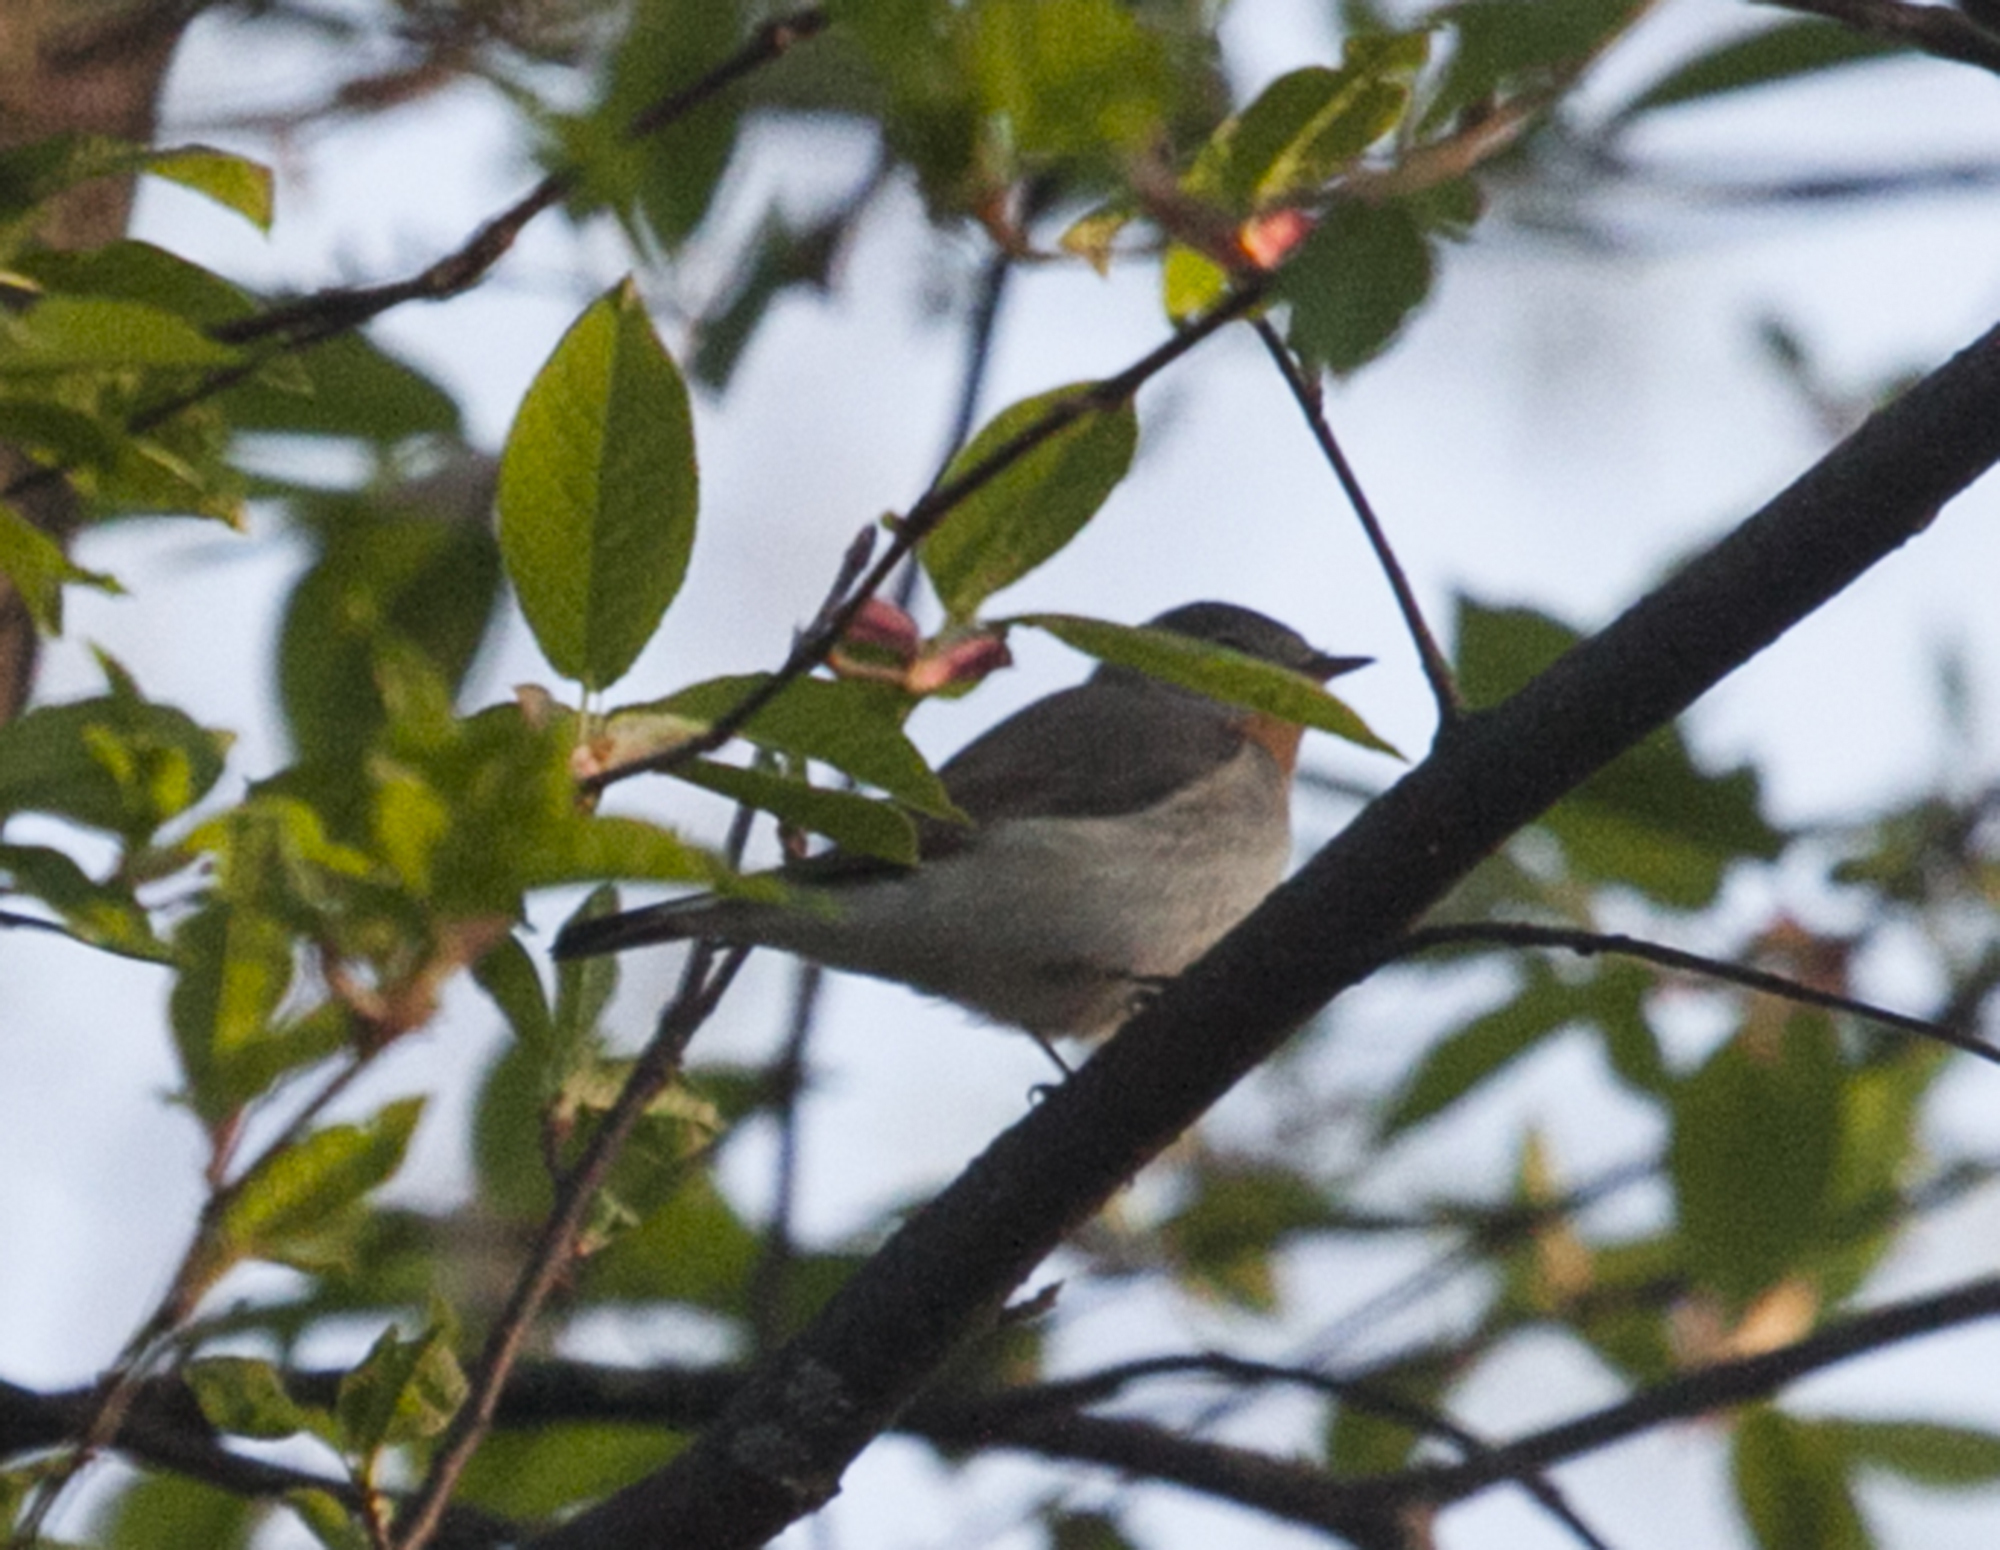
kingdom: Animalia
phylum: Chordata
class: Aves
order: Passeriformes
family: Muscicapidae
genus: Ficedula
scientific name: Ficedula parva
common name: Red-breasted flycatcher
